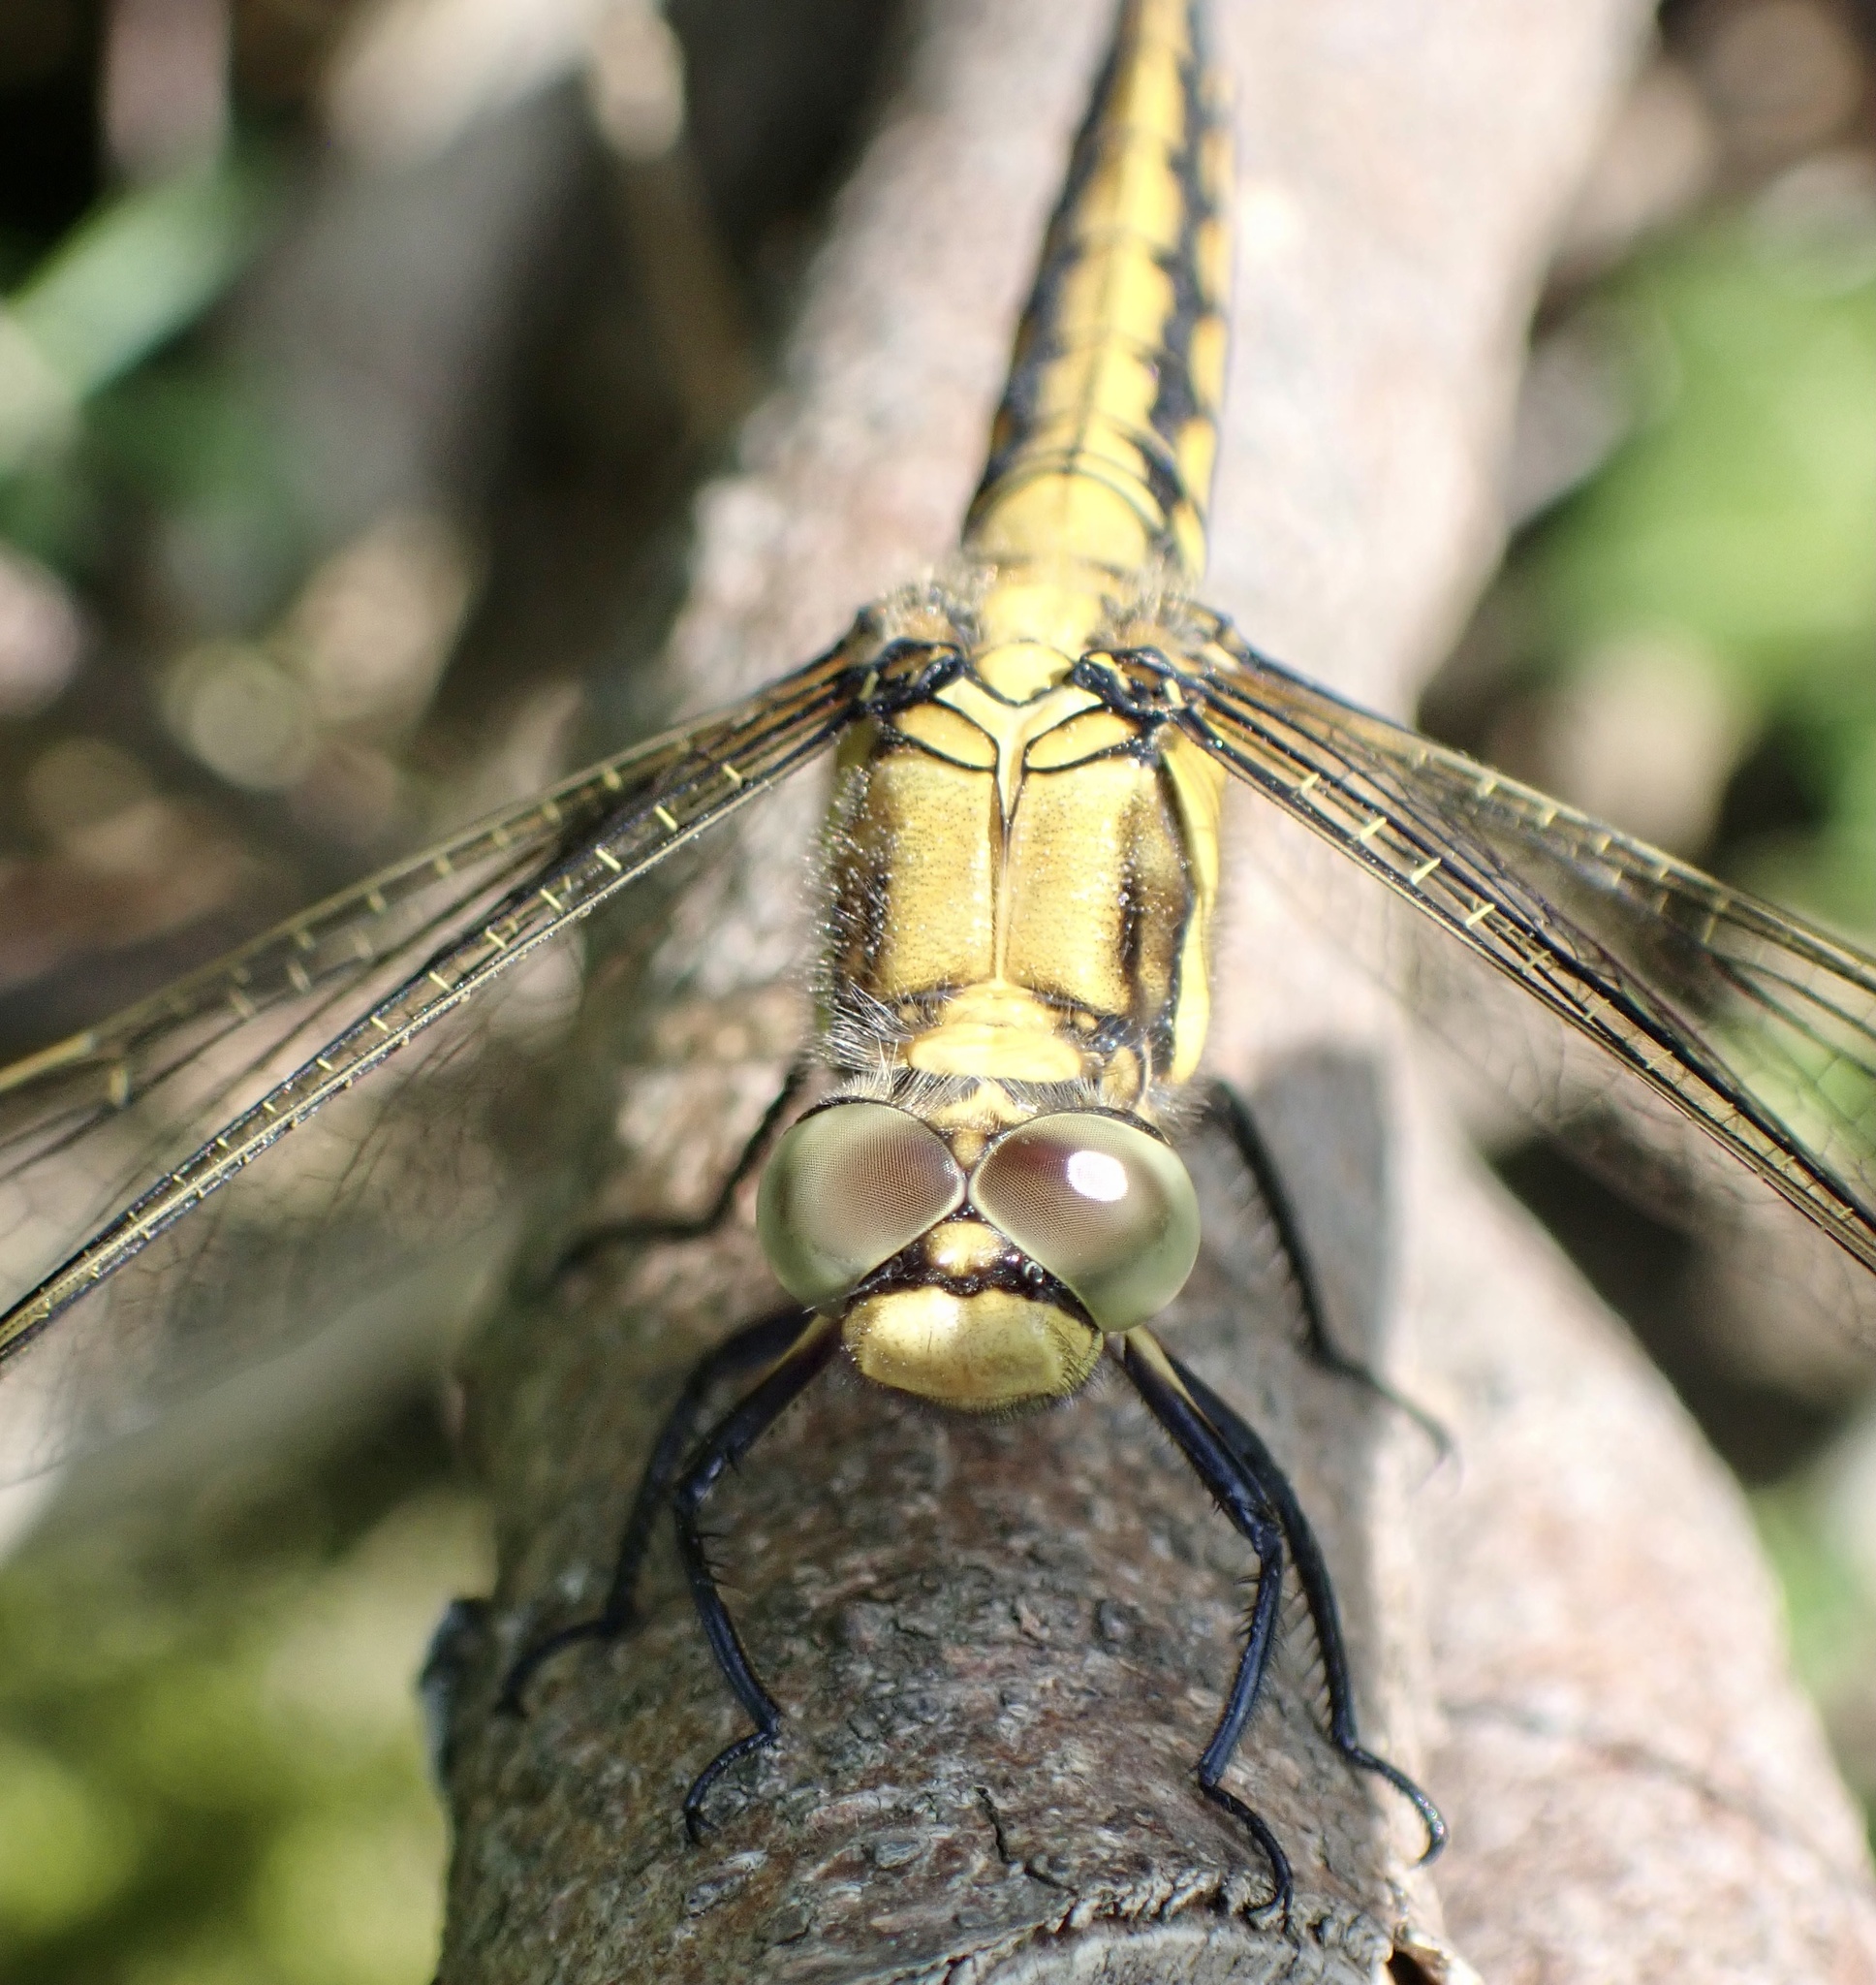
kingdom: Animalia
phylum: Arthropoda
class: Insecta
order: Odonata
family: Libellulidae
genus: Orthetrum
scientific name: Orthetrum cancellatum
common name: Black-tailed skimmer
